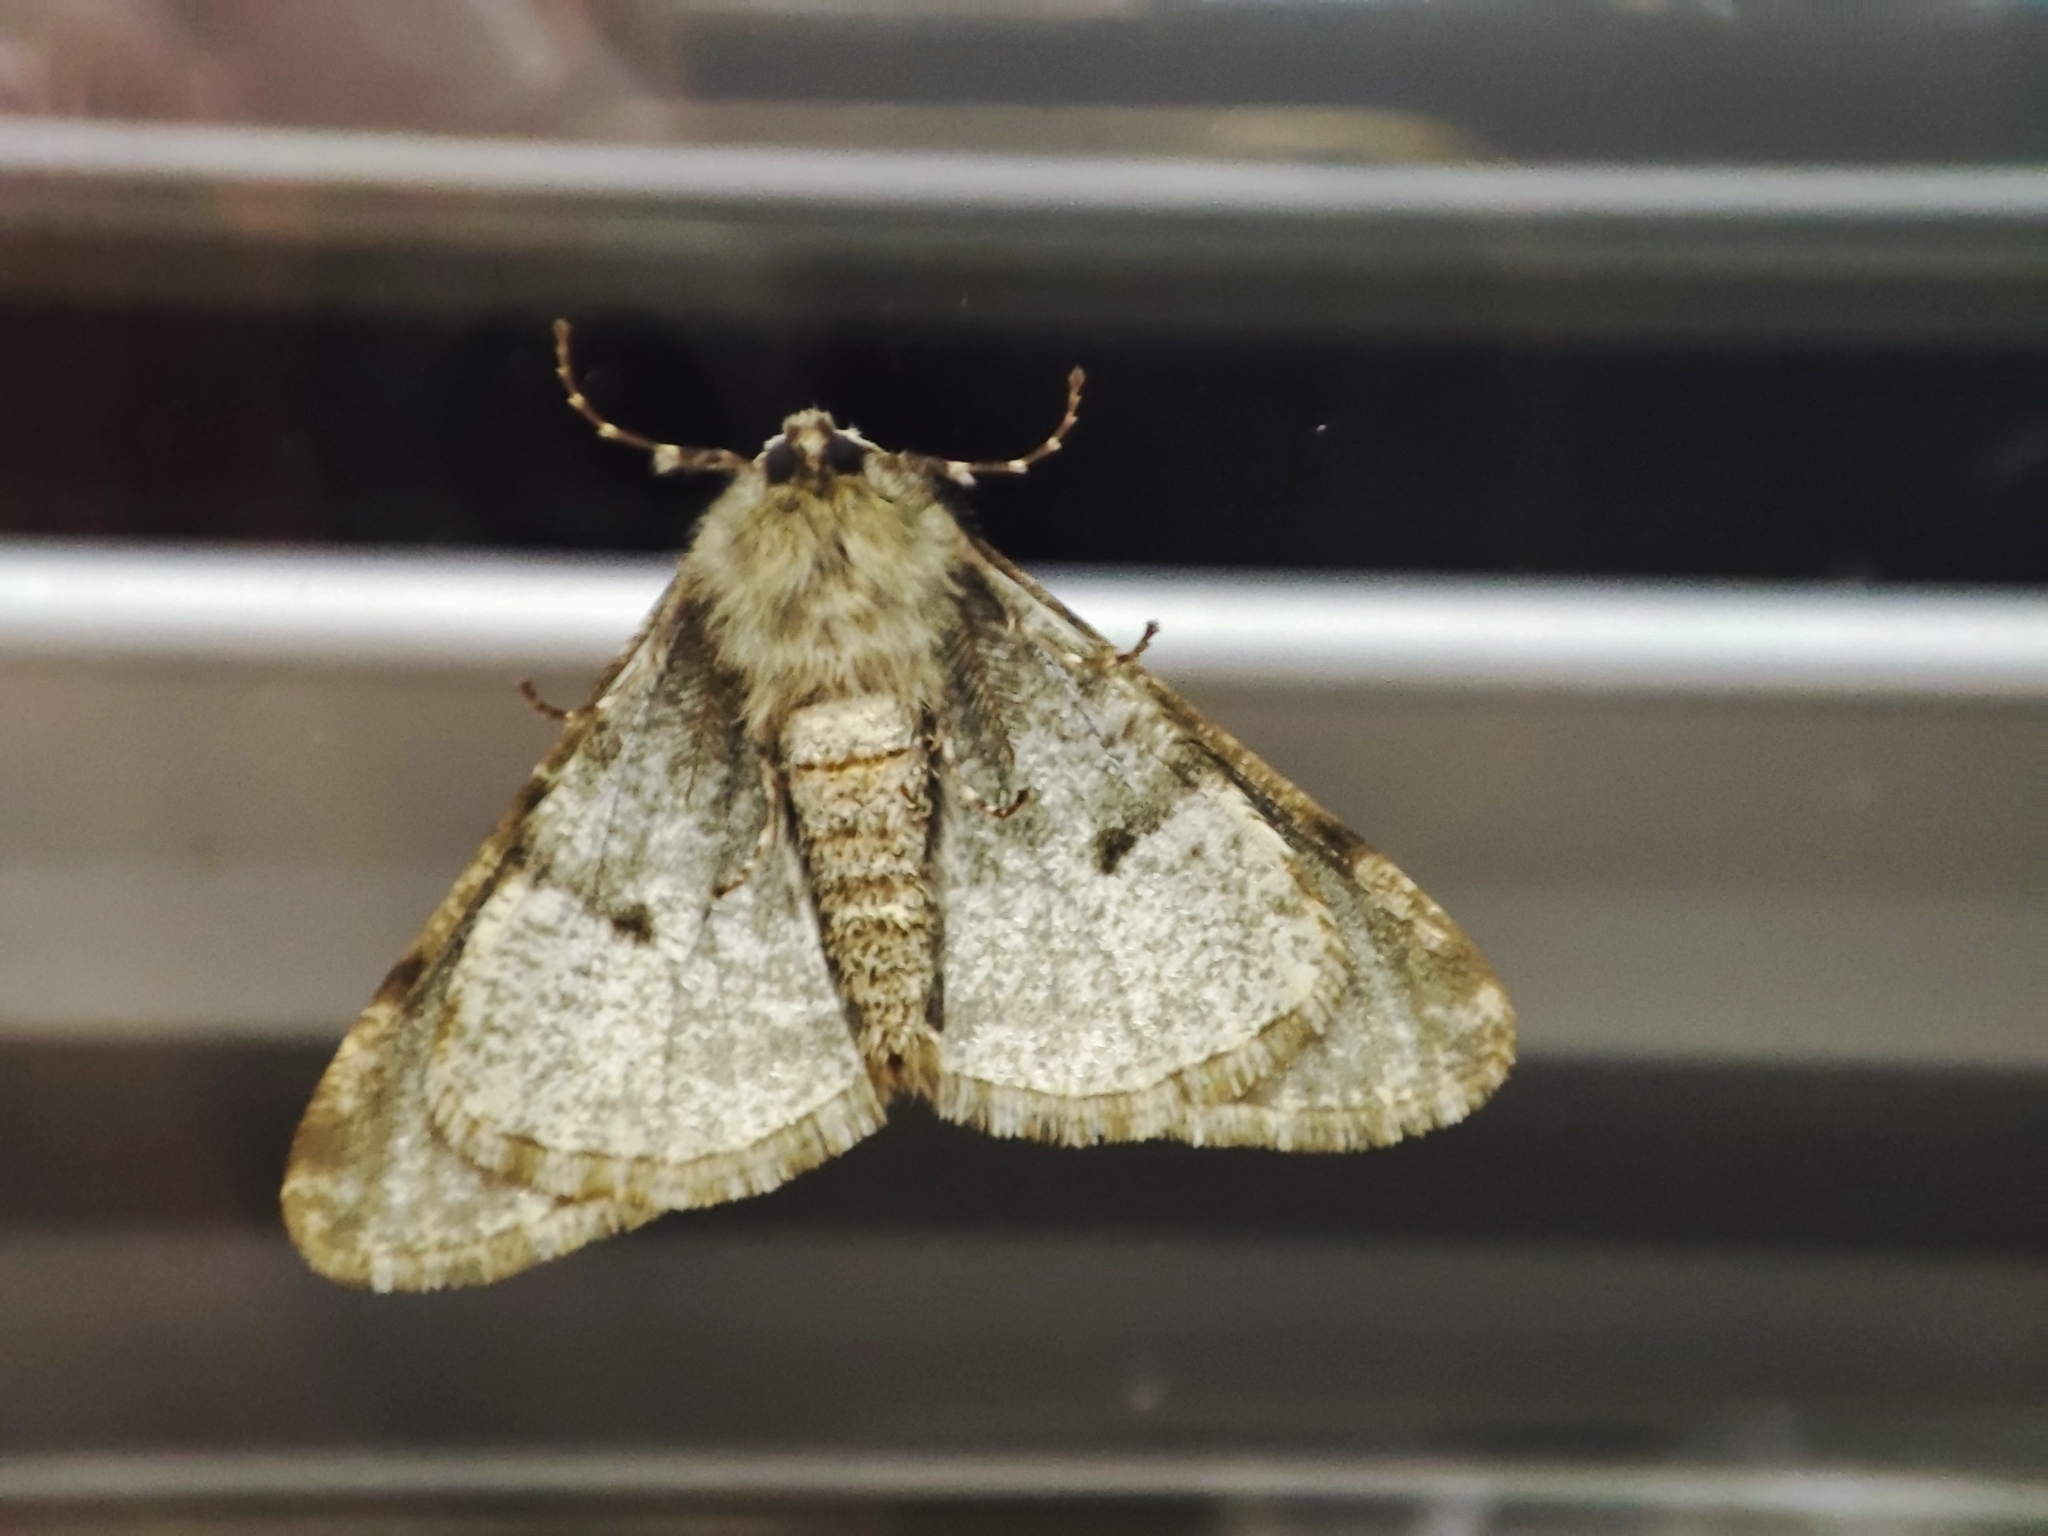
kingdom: Animalia
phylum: Arthropoda
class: Insecta
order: Lepidoptera
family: Geometridae
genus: Phigalia
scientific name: Phigalia pilosaria
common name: Pale brindled beauty
